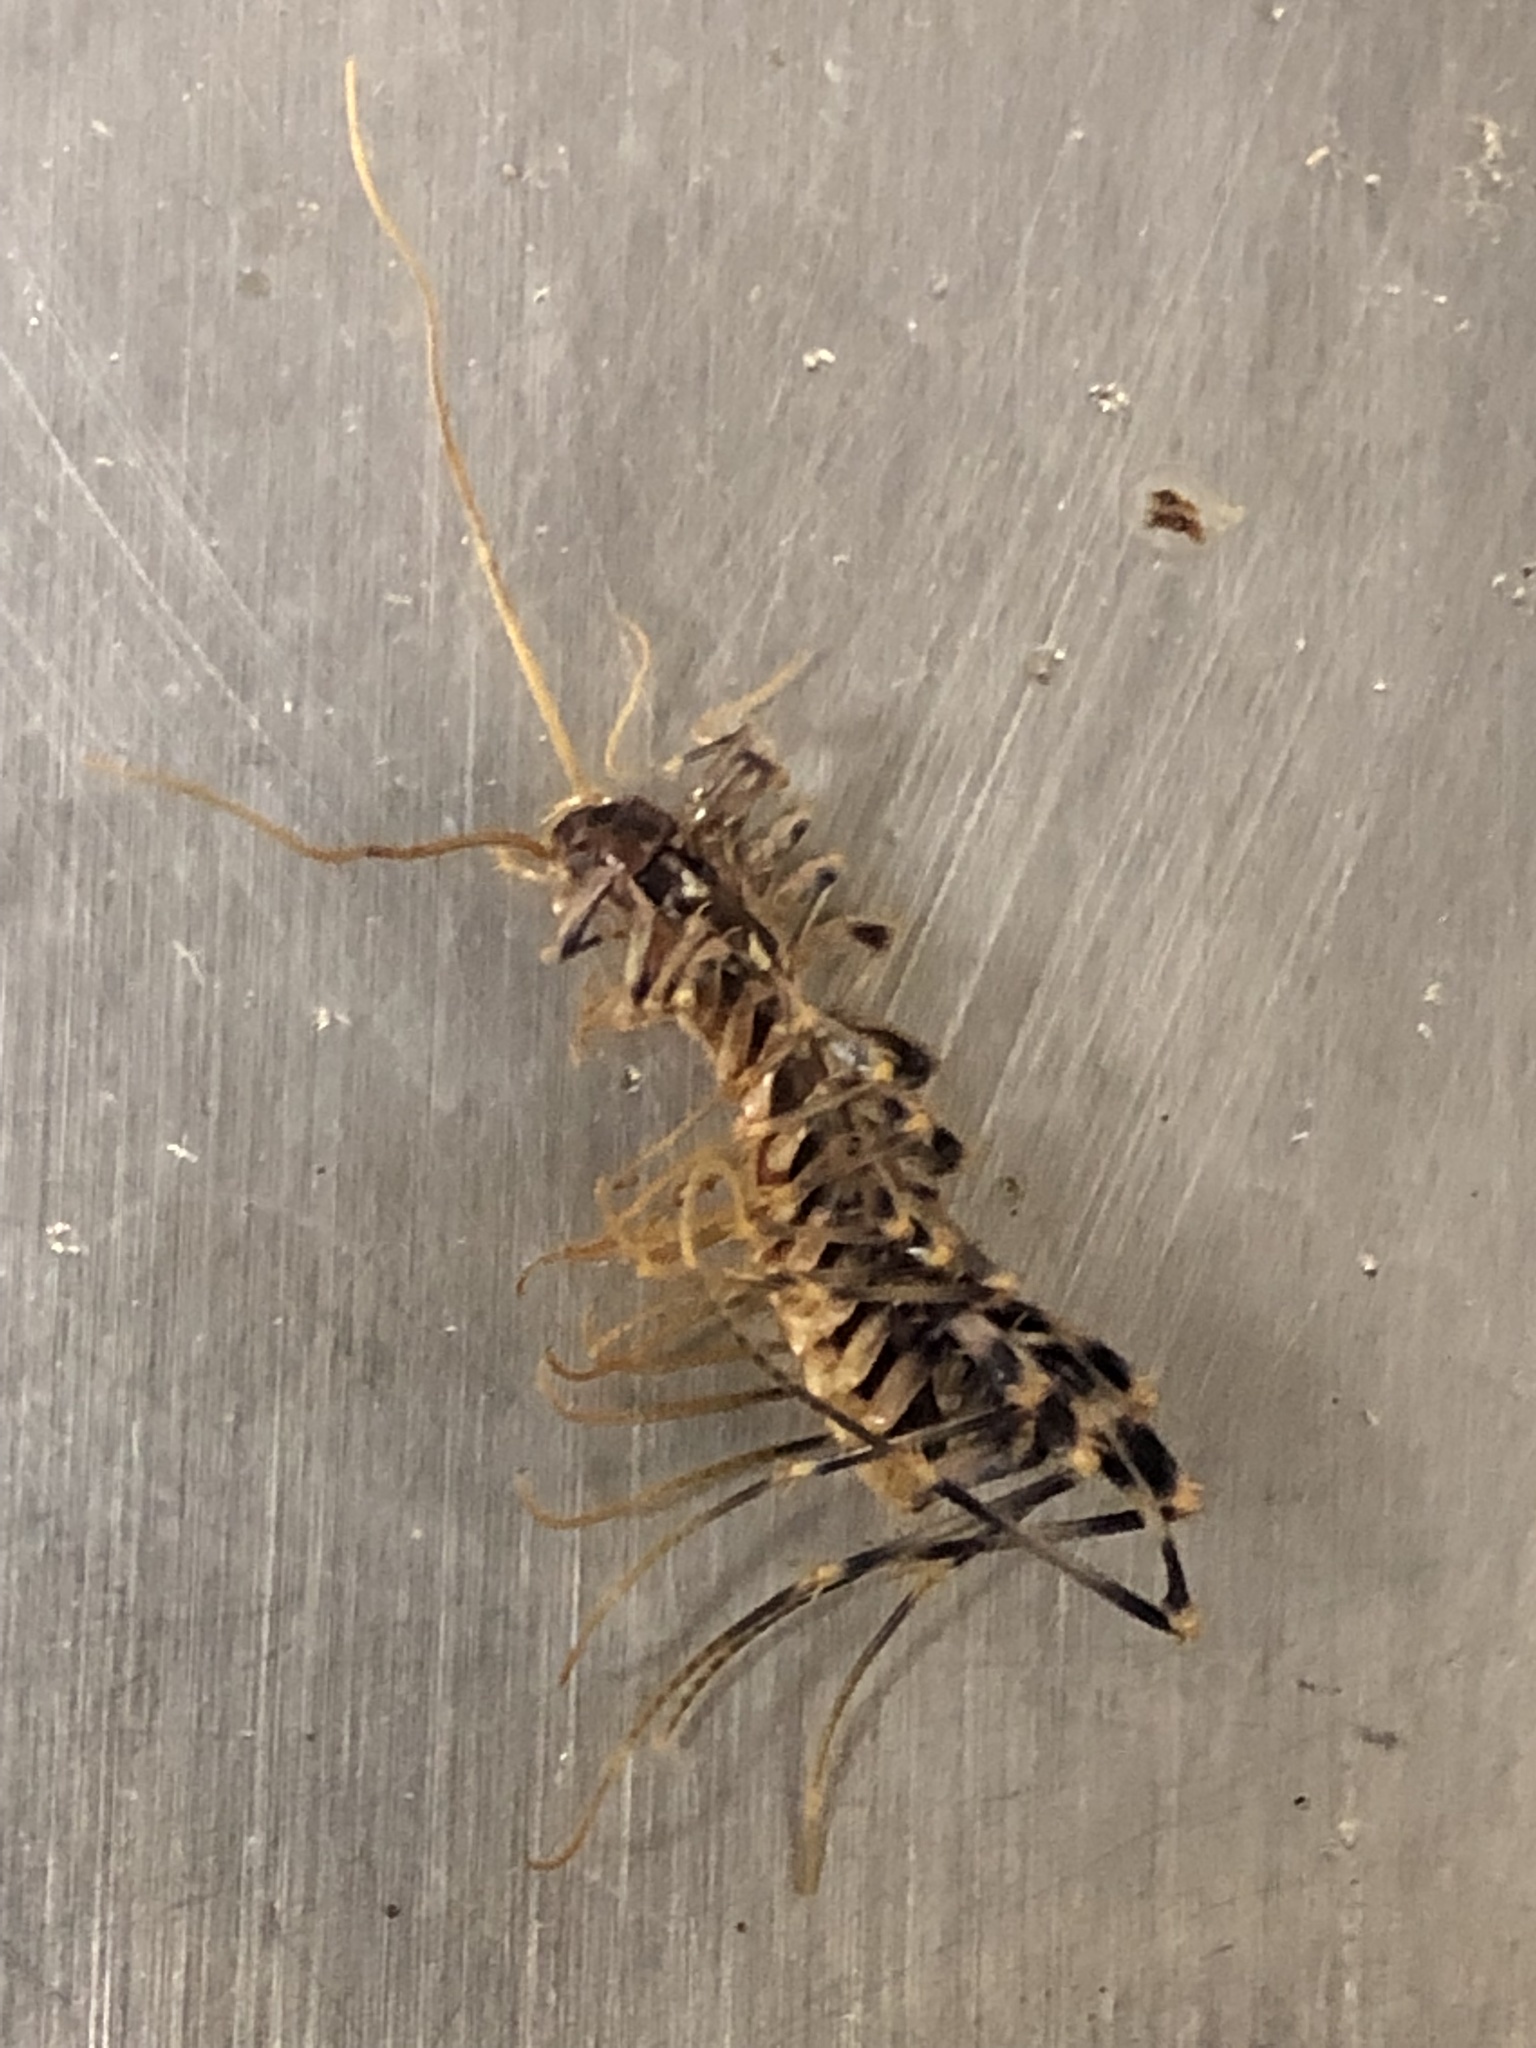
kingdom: Animalia
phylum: Arthropoda
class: Chilopoda
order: Scutigeromorpha
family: Scutigeridae
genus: Scutigera
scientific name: Scutigera coleoptrata
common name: House centipede
